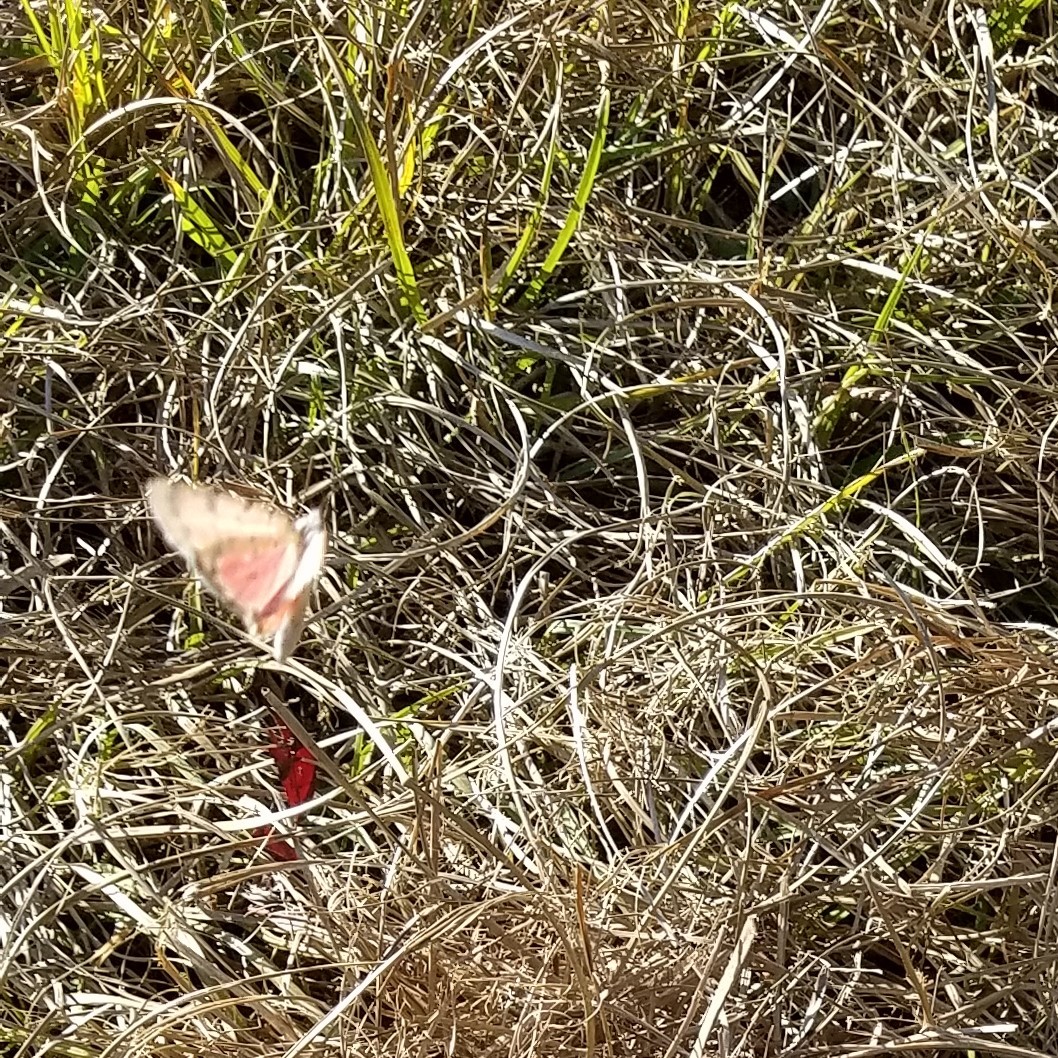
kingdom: Animalia
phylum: Arthropoda
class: Insecta
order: Lepidoptera
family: Erebidae
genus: Utetheisa
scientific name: Utetheisa ornatrix
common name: Beautiful utetheisa
